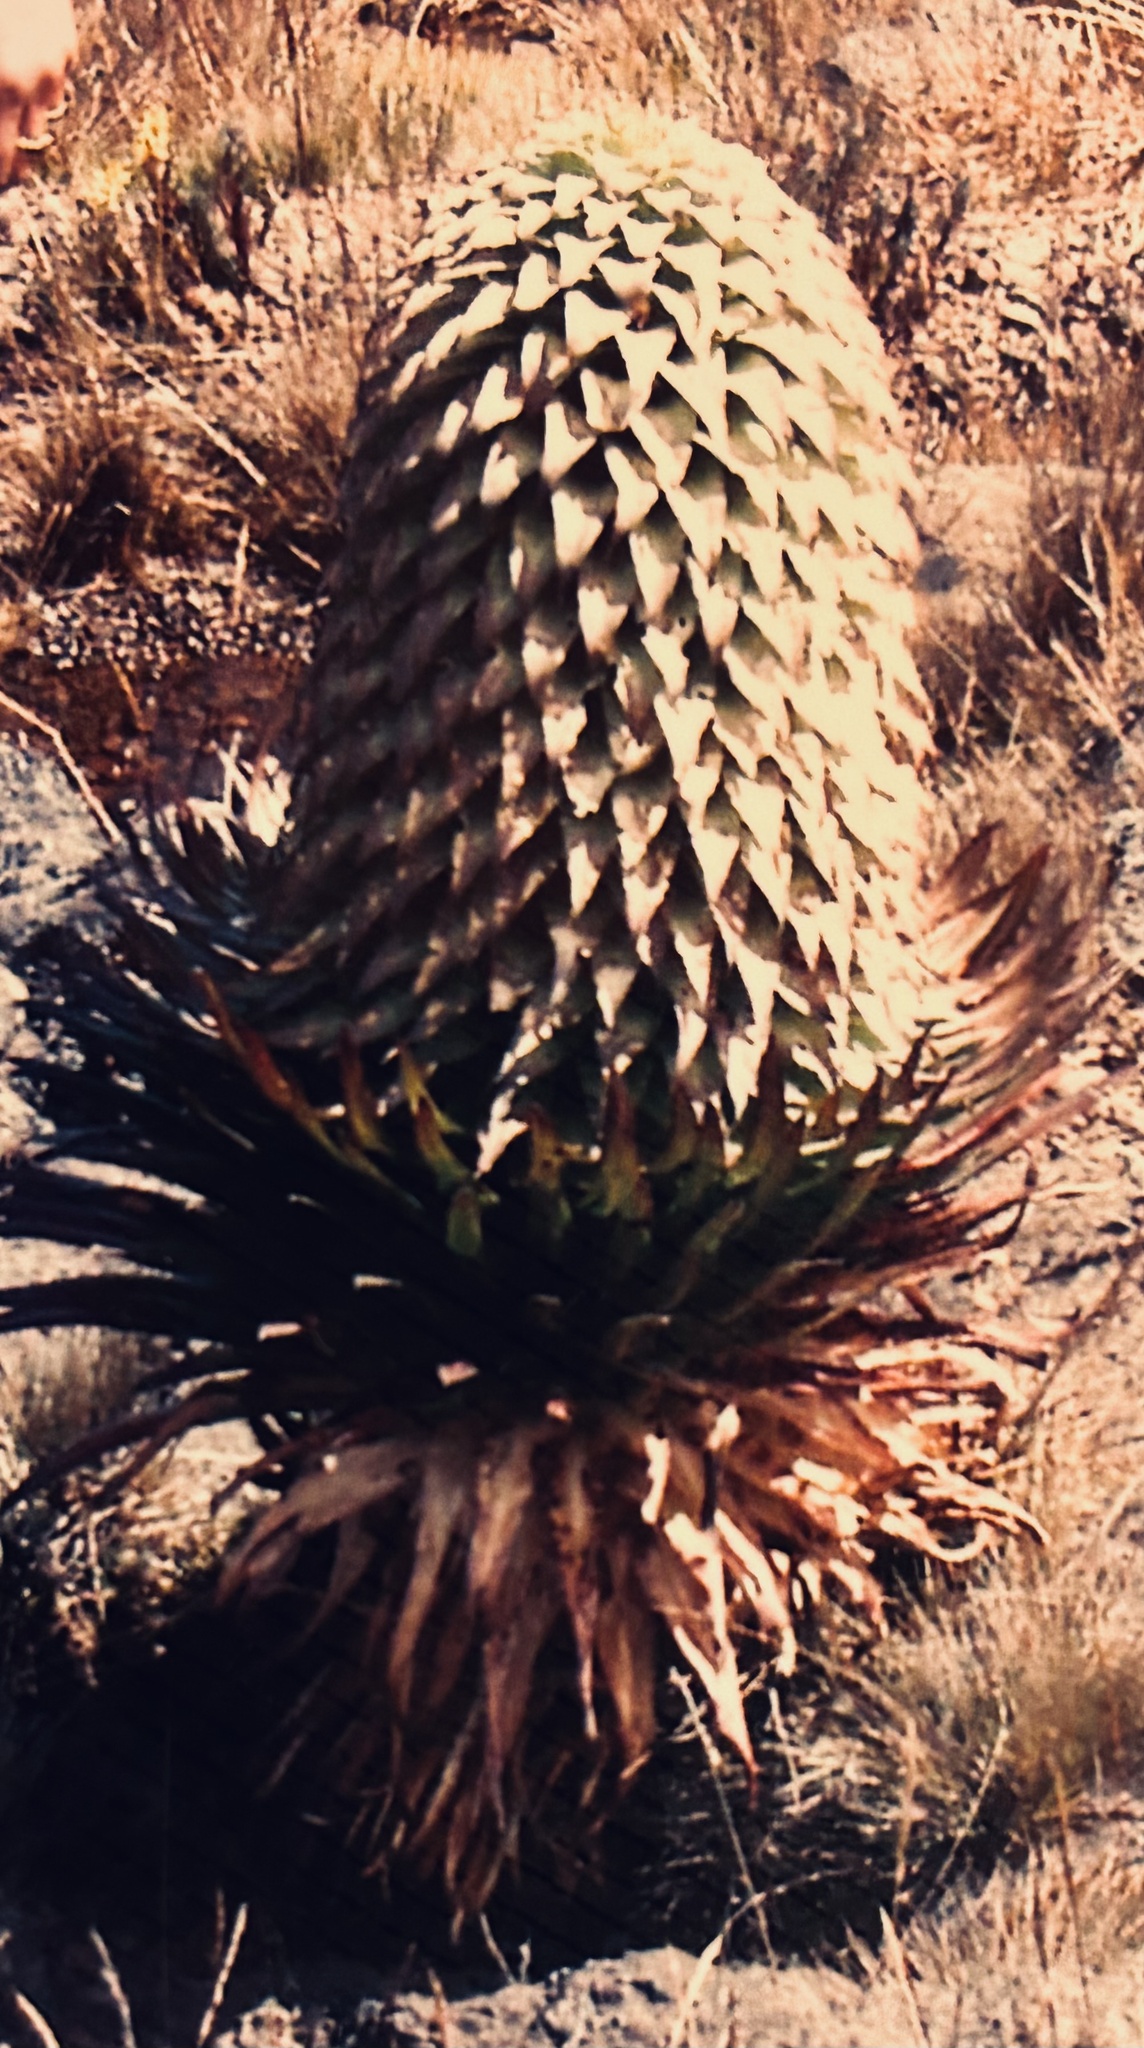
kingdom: Plantae
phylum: Tracheophyta
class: Magnoliopsida
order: Asterales
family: Campanulaceae
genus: Lobelia
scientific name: Lobelia deckenii
